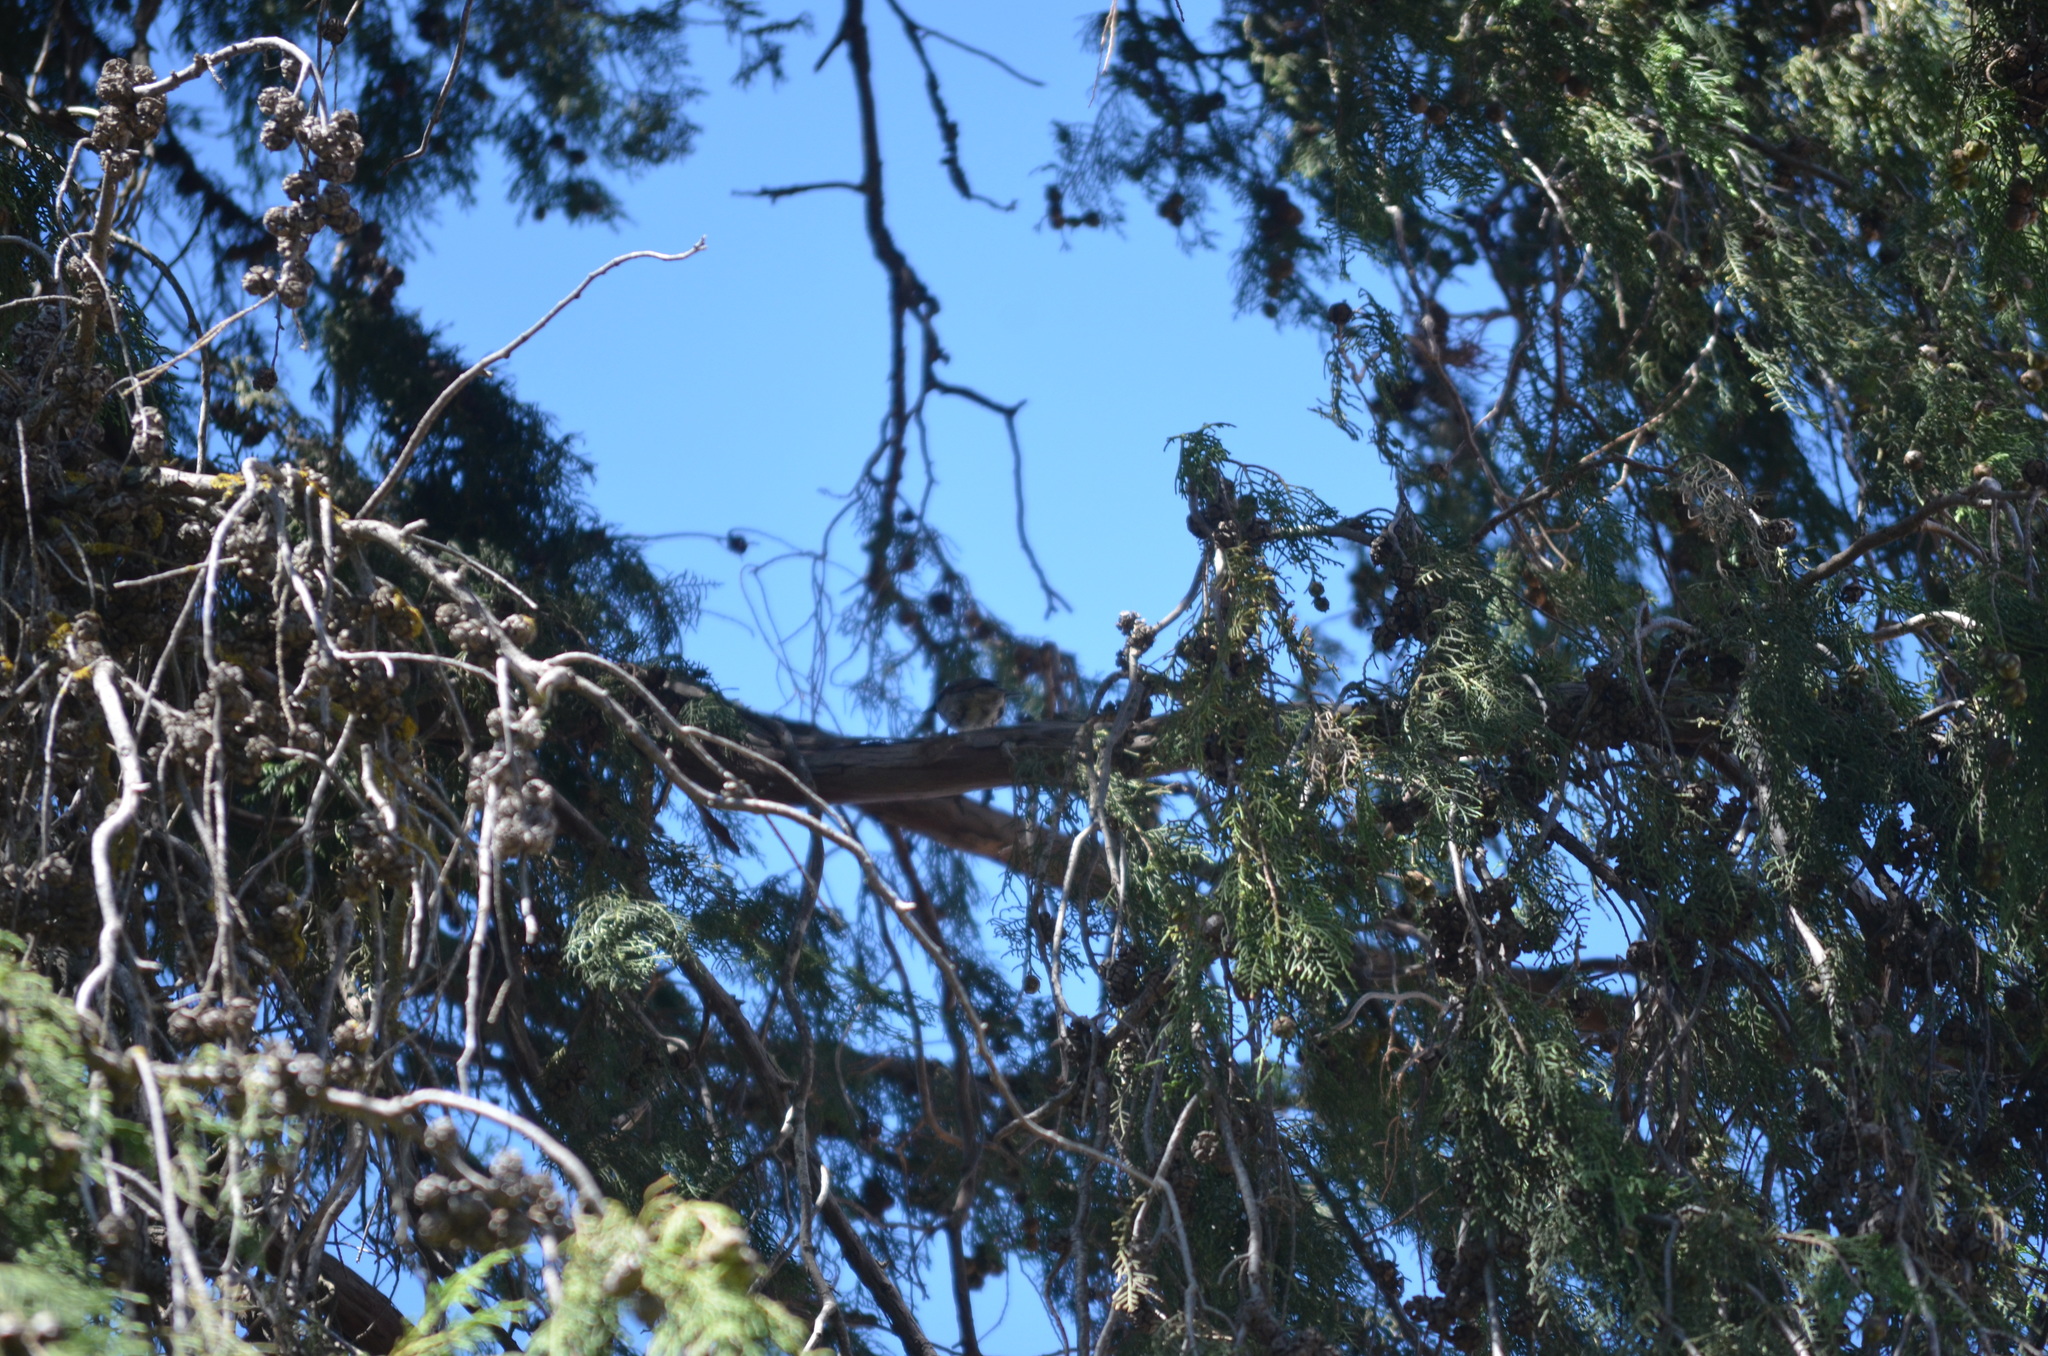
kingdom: Animalia
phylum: Chordata
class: Aves
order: Passeriformes
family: Passeridae
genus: Passer
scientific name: Passer domesticus
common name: House sparrow
